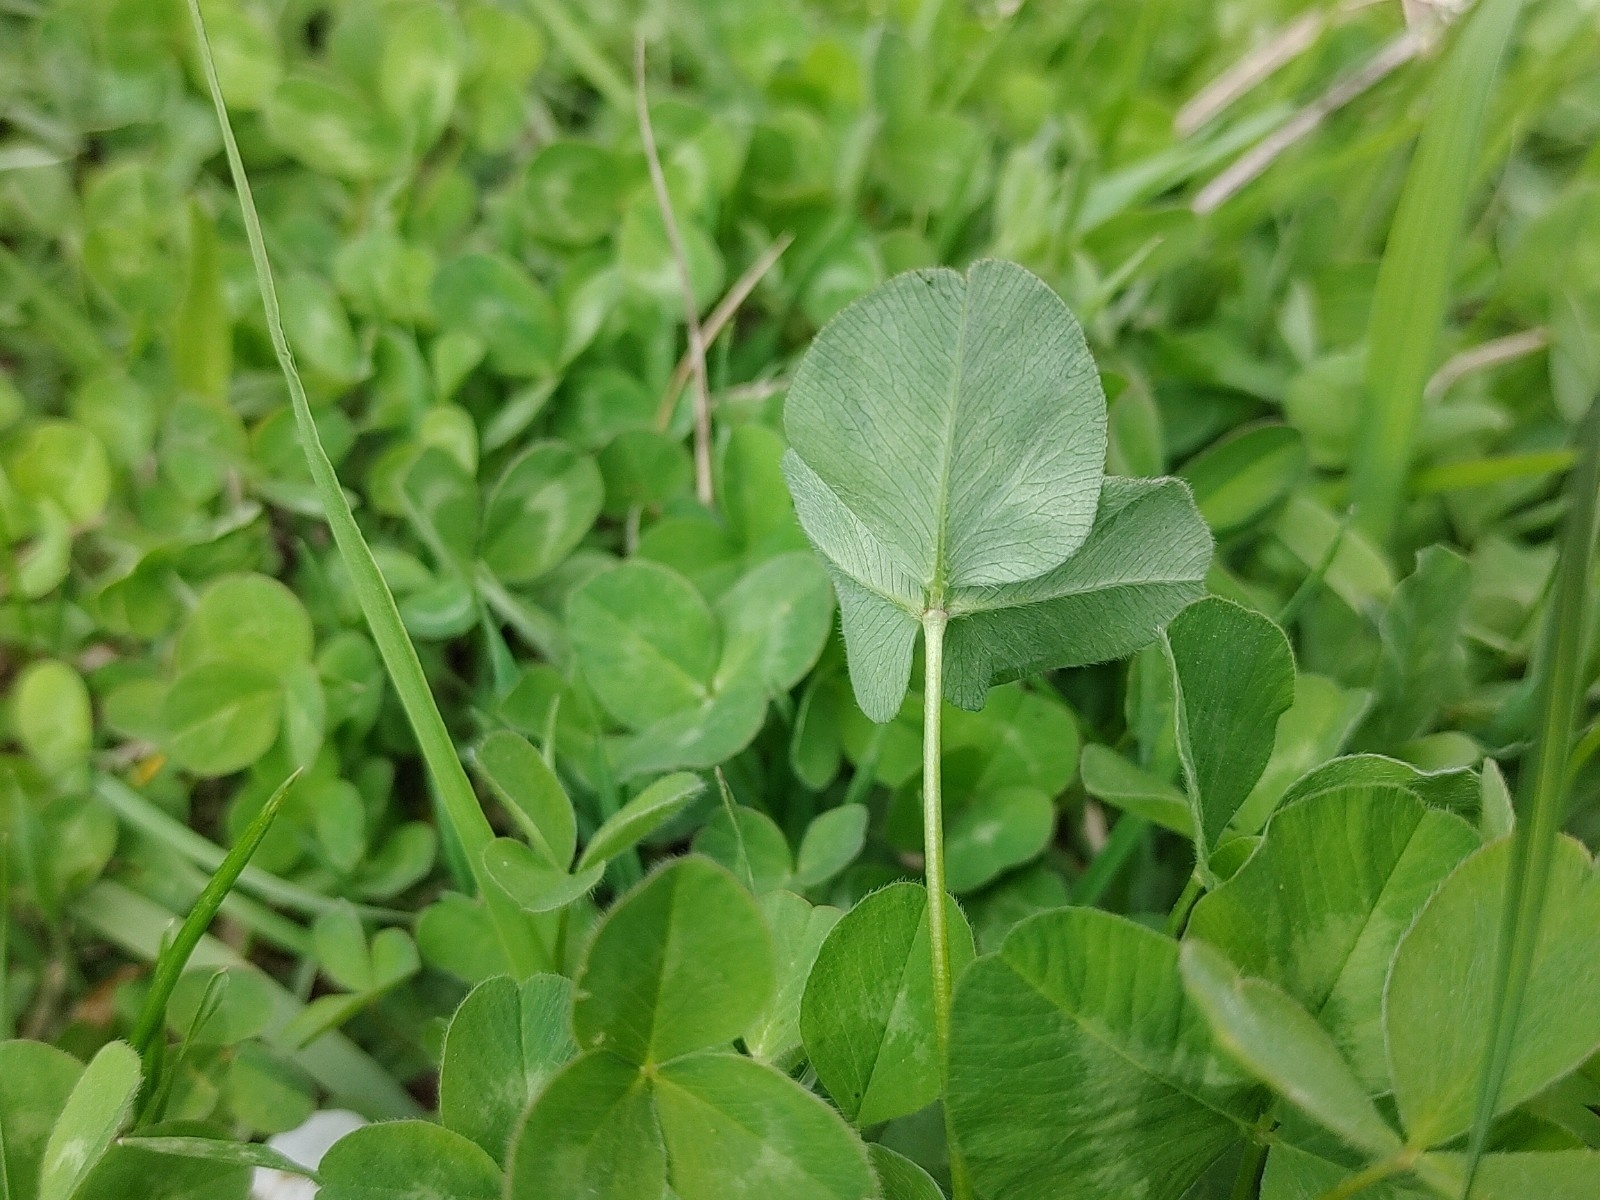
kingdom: Plantae
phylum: Tracheophyta
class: Magnoliopsida
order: Fabales
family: Fabaceae
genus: Trifolium
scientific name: Trifolium pratense
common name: Red clover
